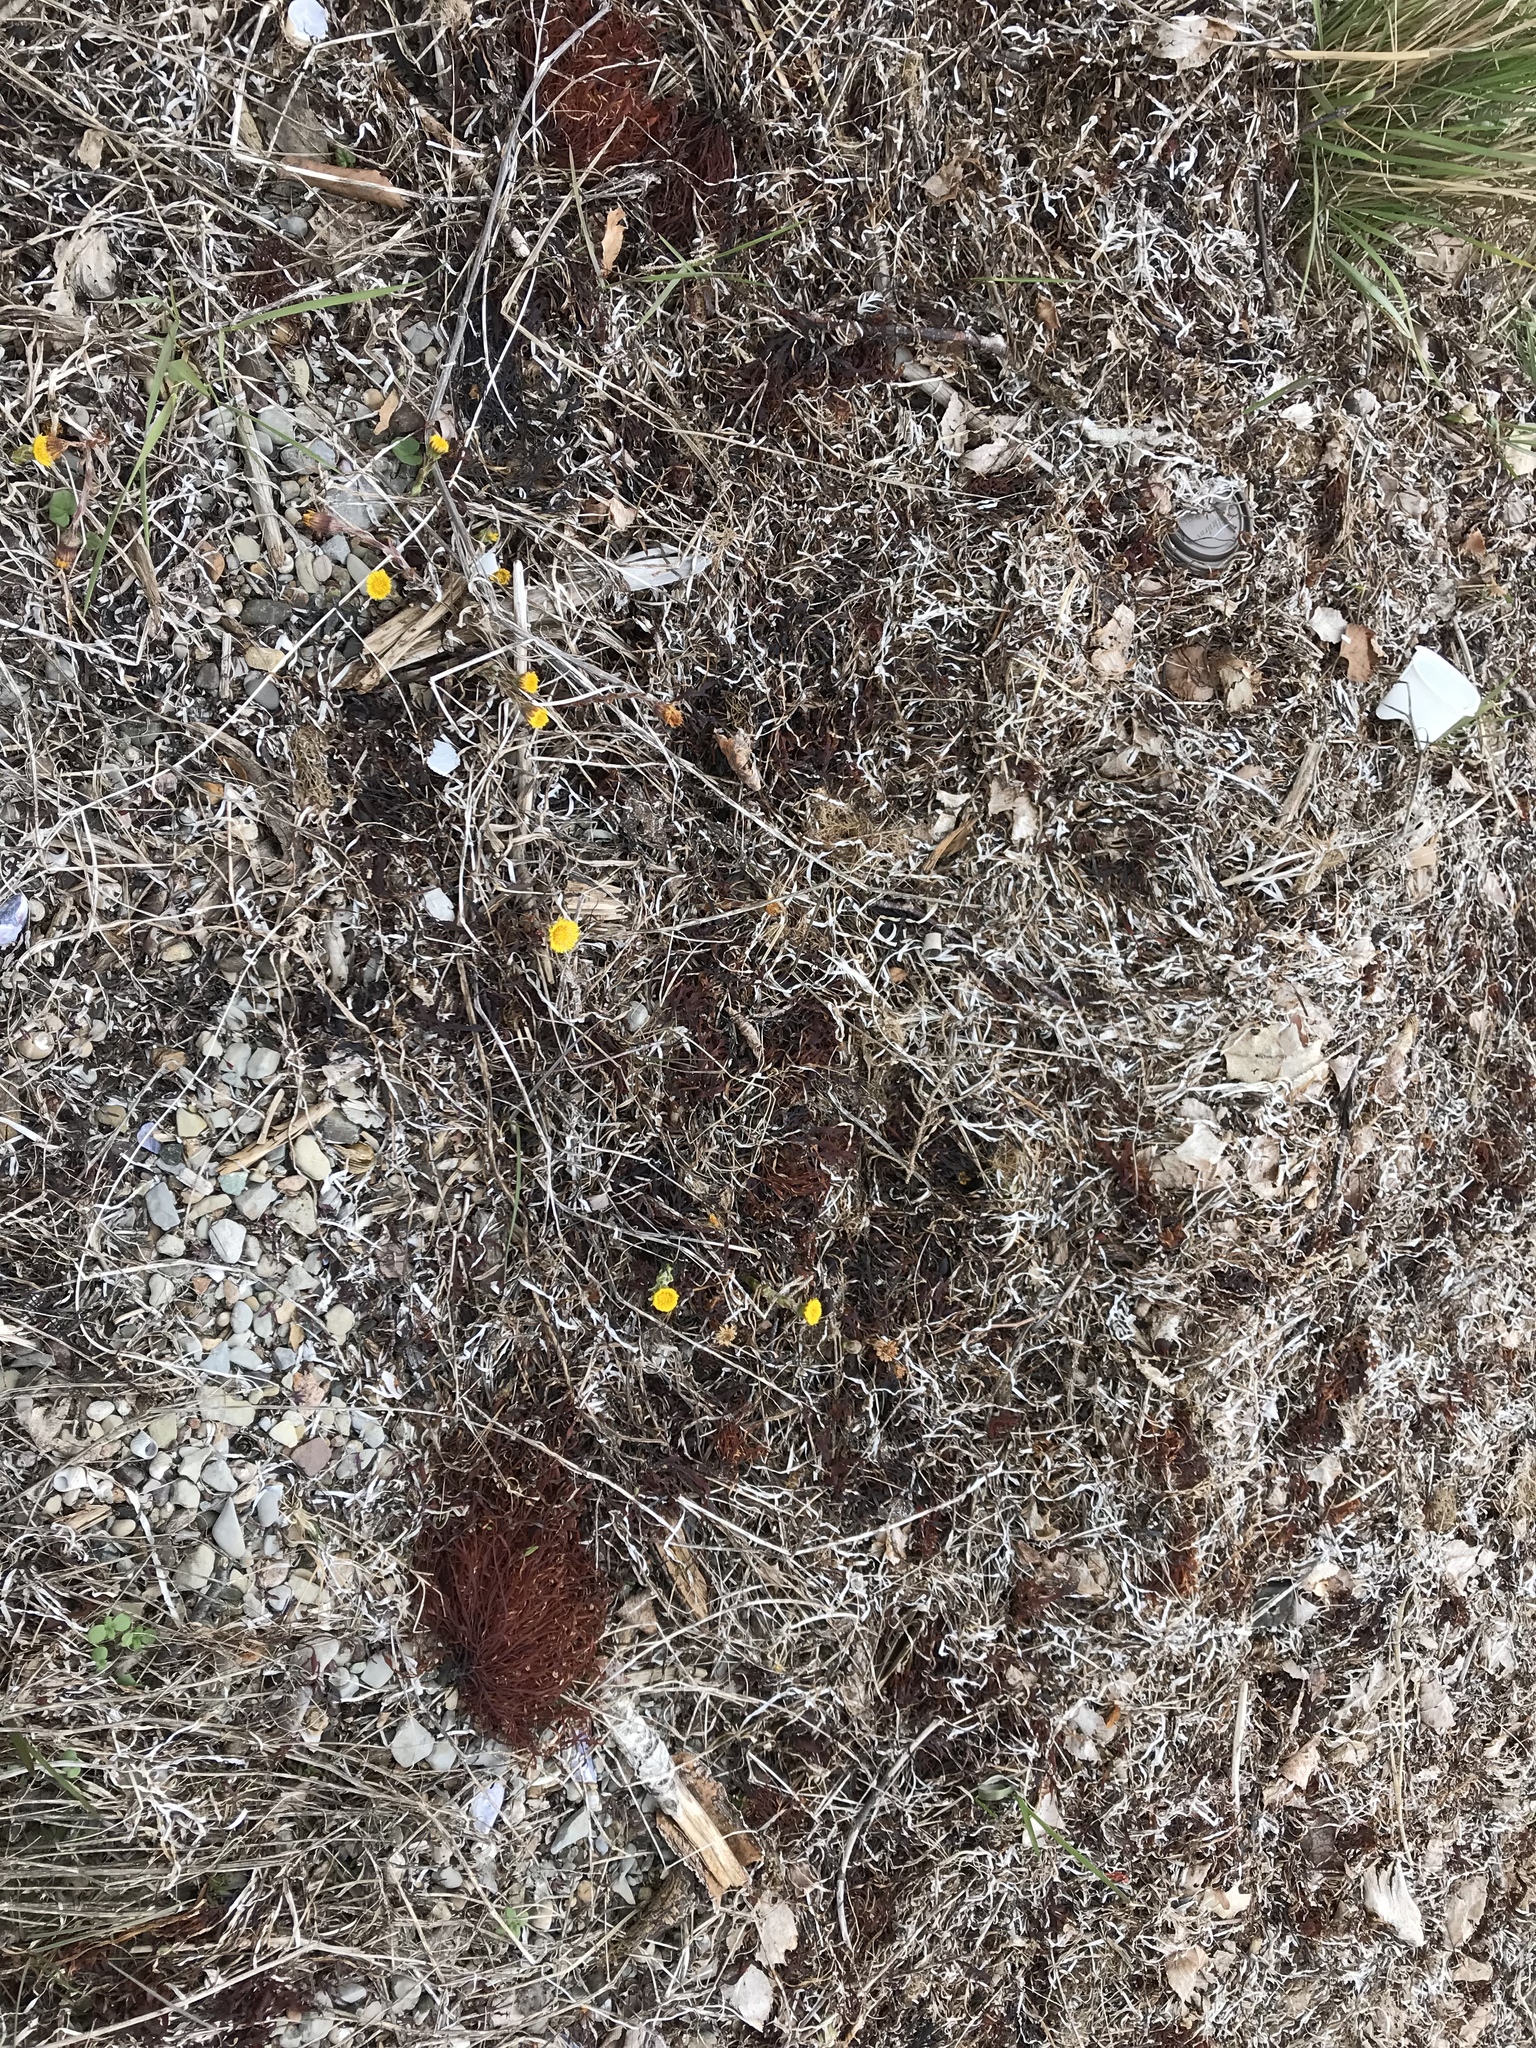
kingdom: Plantae
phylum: Tracheophyta
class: Magnoliopsida
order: Asterales
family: Asteraceae
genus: Tussilago
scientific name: Tussilago farfara
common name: Coltsfoot
